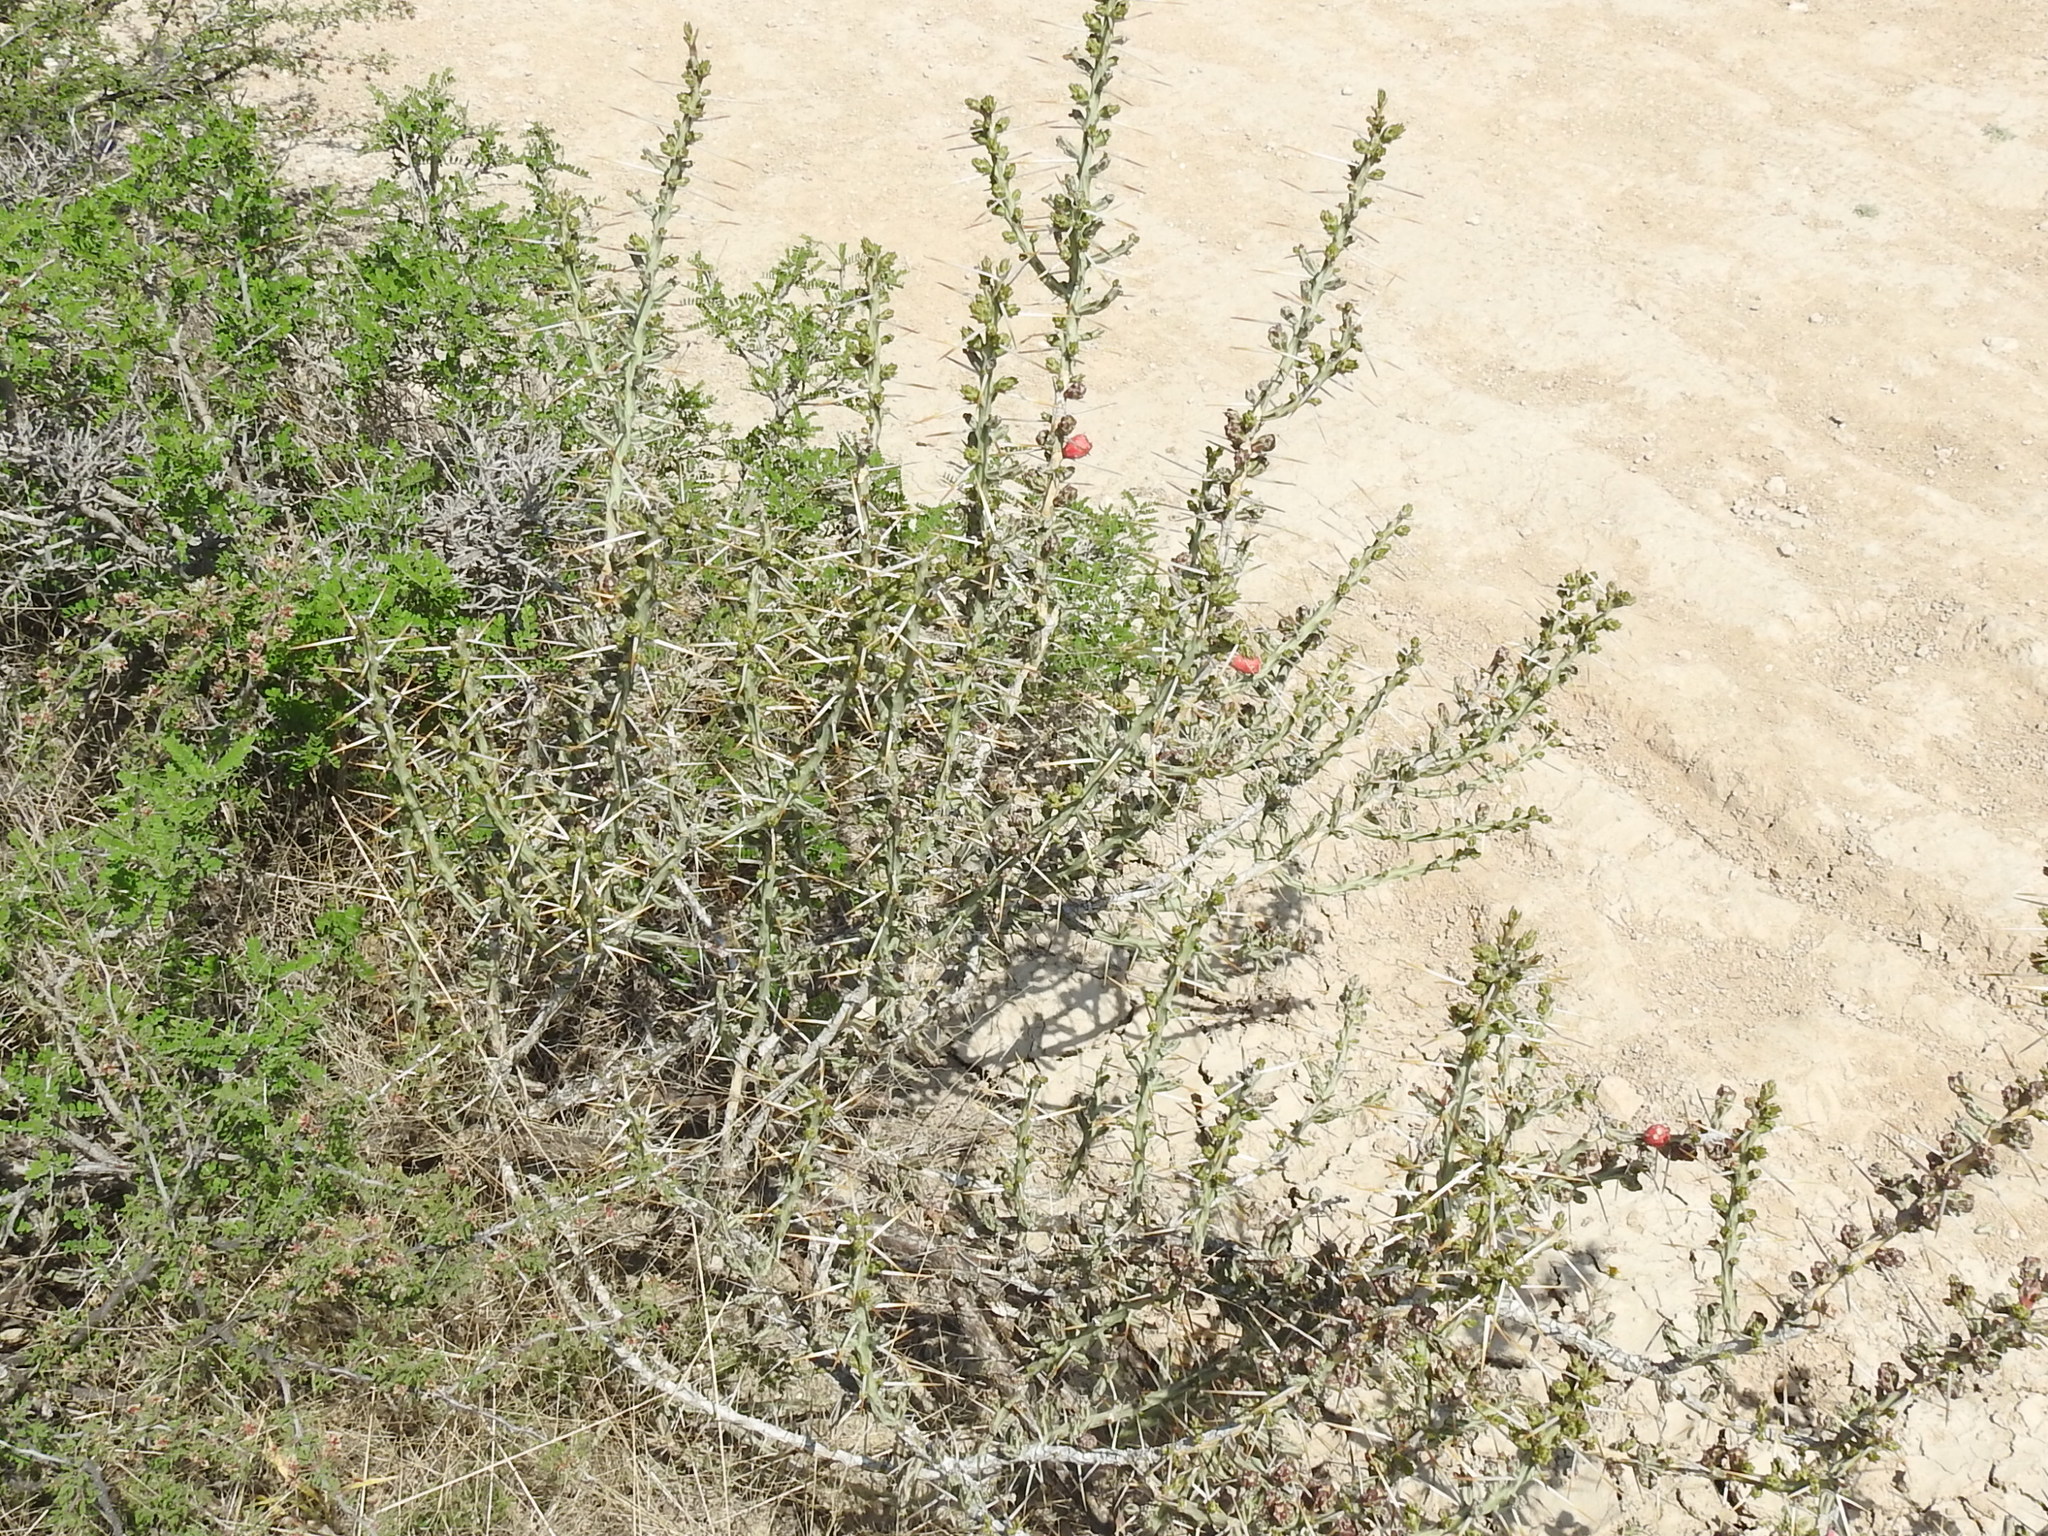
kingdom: Plantae
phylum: Tracheophyta
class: Magnoliopsida
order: Caryophyllales
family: Cactaceae
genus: Cylindropuntia
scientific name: Cylindropuntia leptocaulis
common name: Christmas cactus
